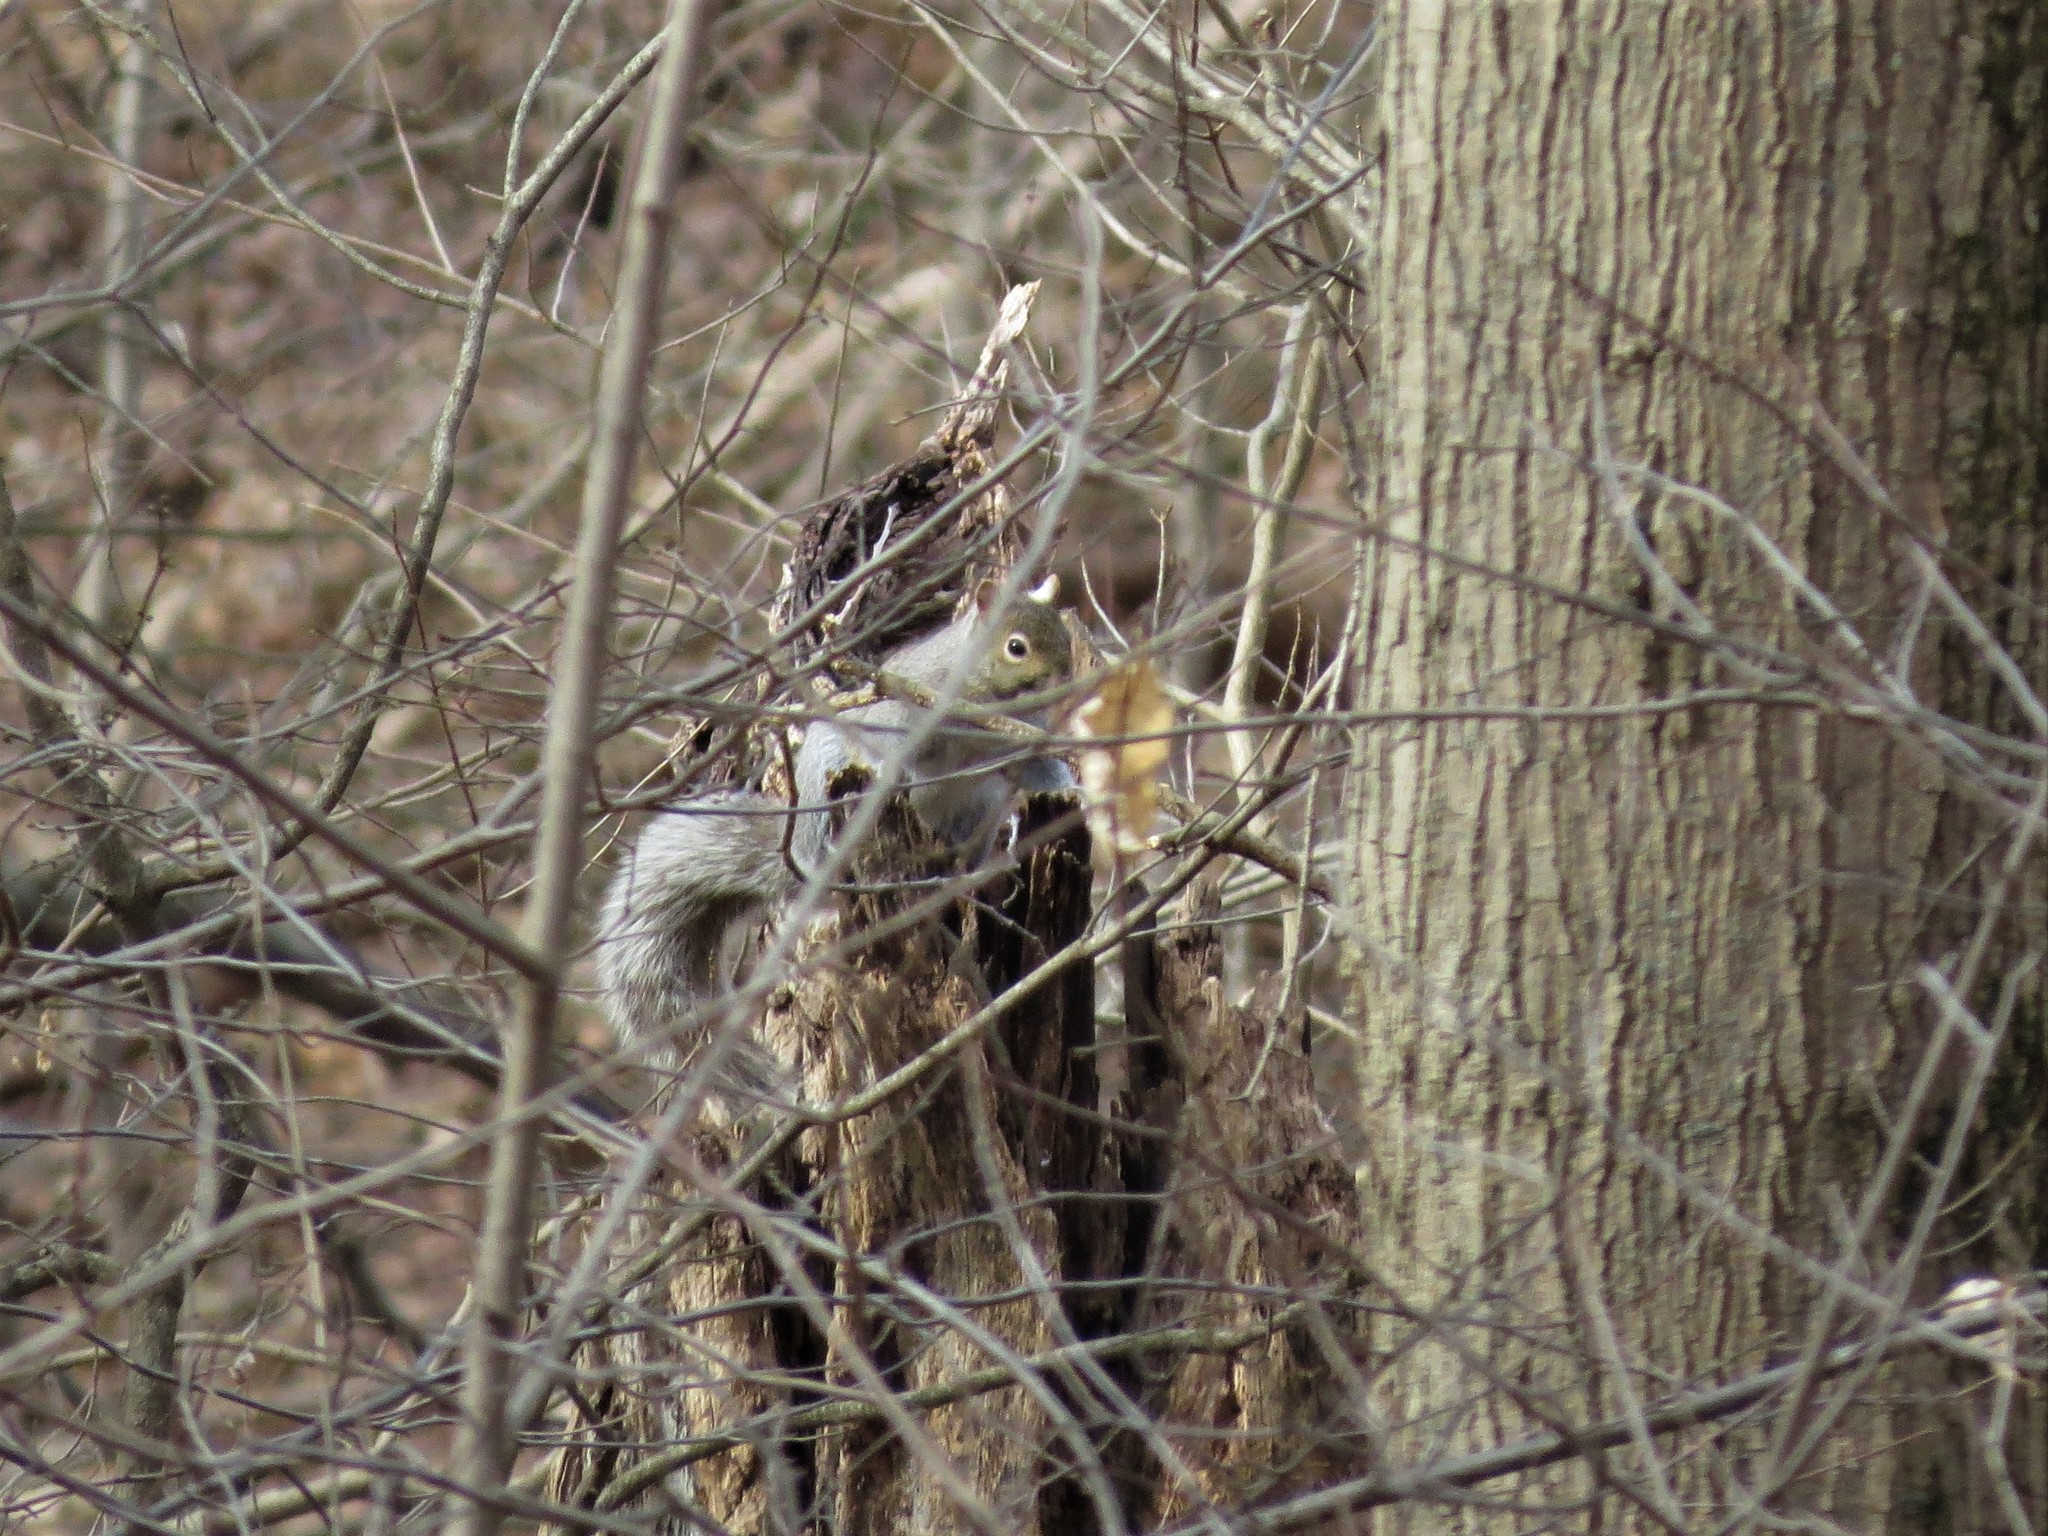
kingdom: Animalia
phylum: Chordata
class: Mammalia
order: Rodentia
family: Sciuridae
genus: Sciurus
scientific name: Sciurus carolinensis
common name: Eastern gray squirrel
